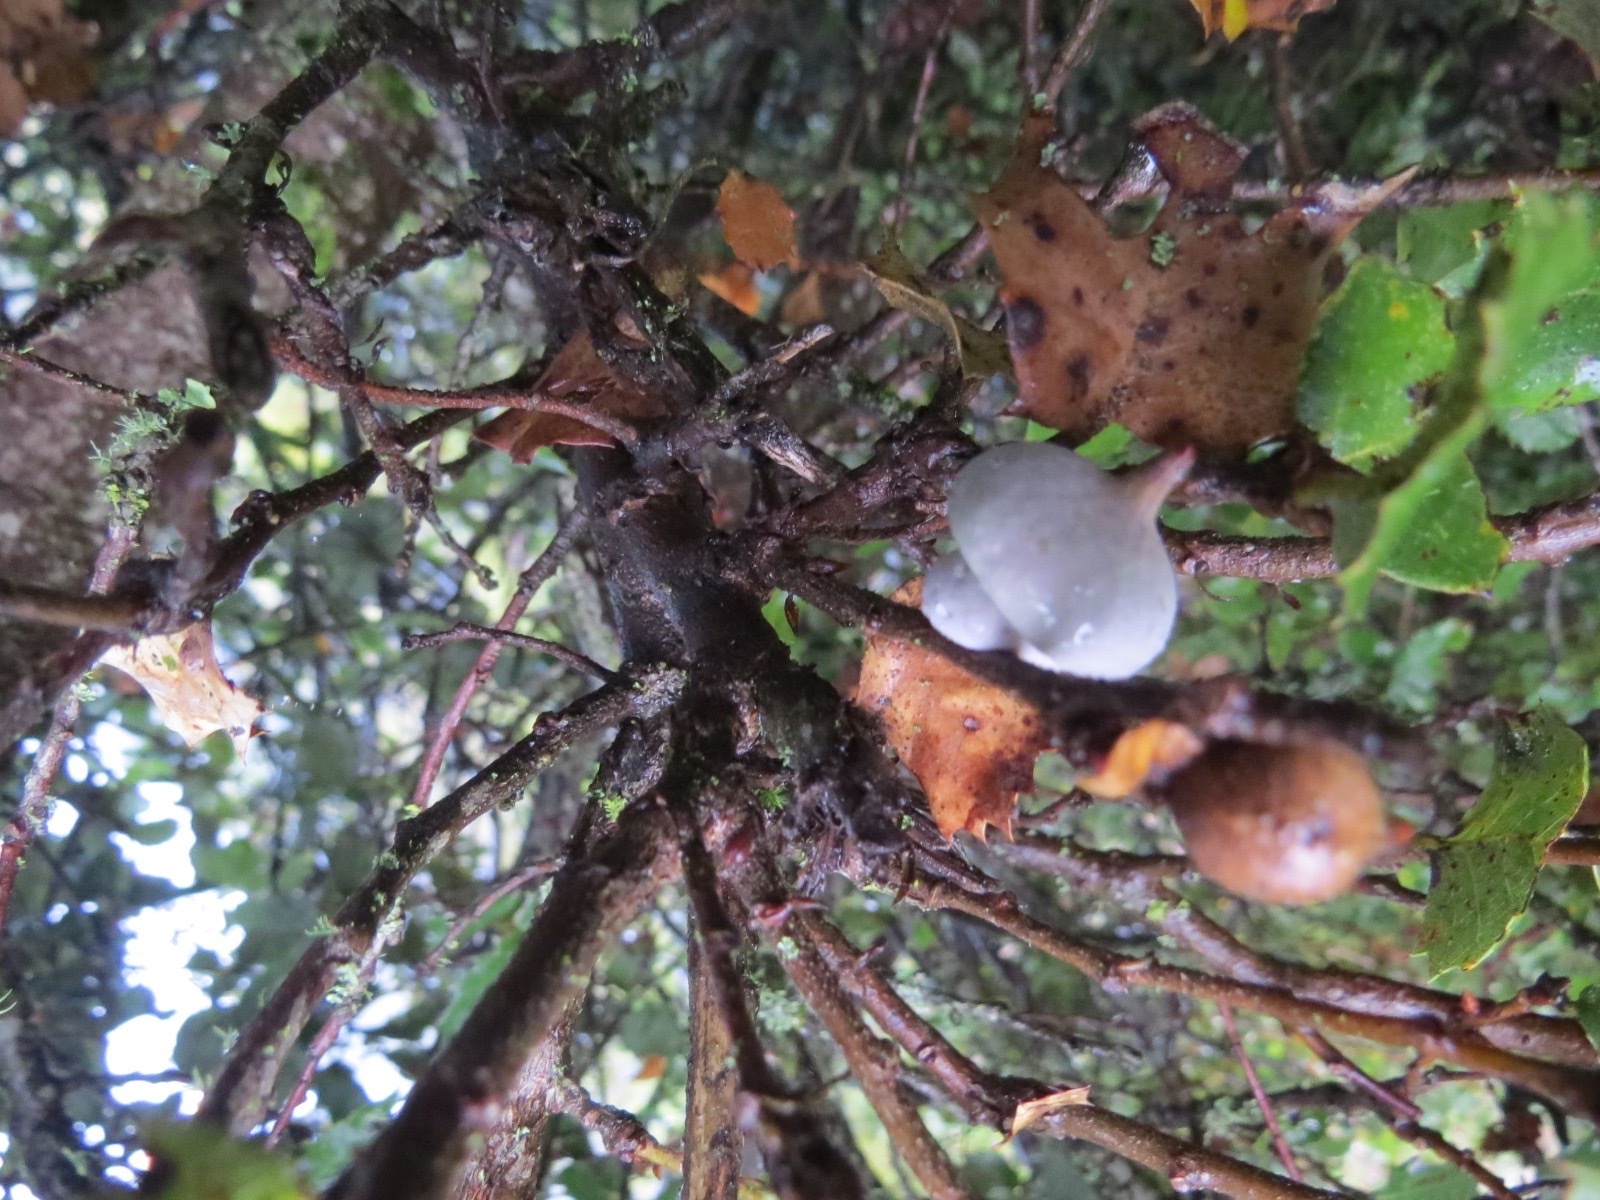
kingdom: Animalia
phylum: Arthropoda
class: Insecta
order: Hymenoptera
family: Cynipidae
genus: Heteroecus
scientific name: Heteroecus
